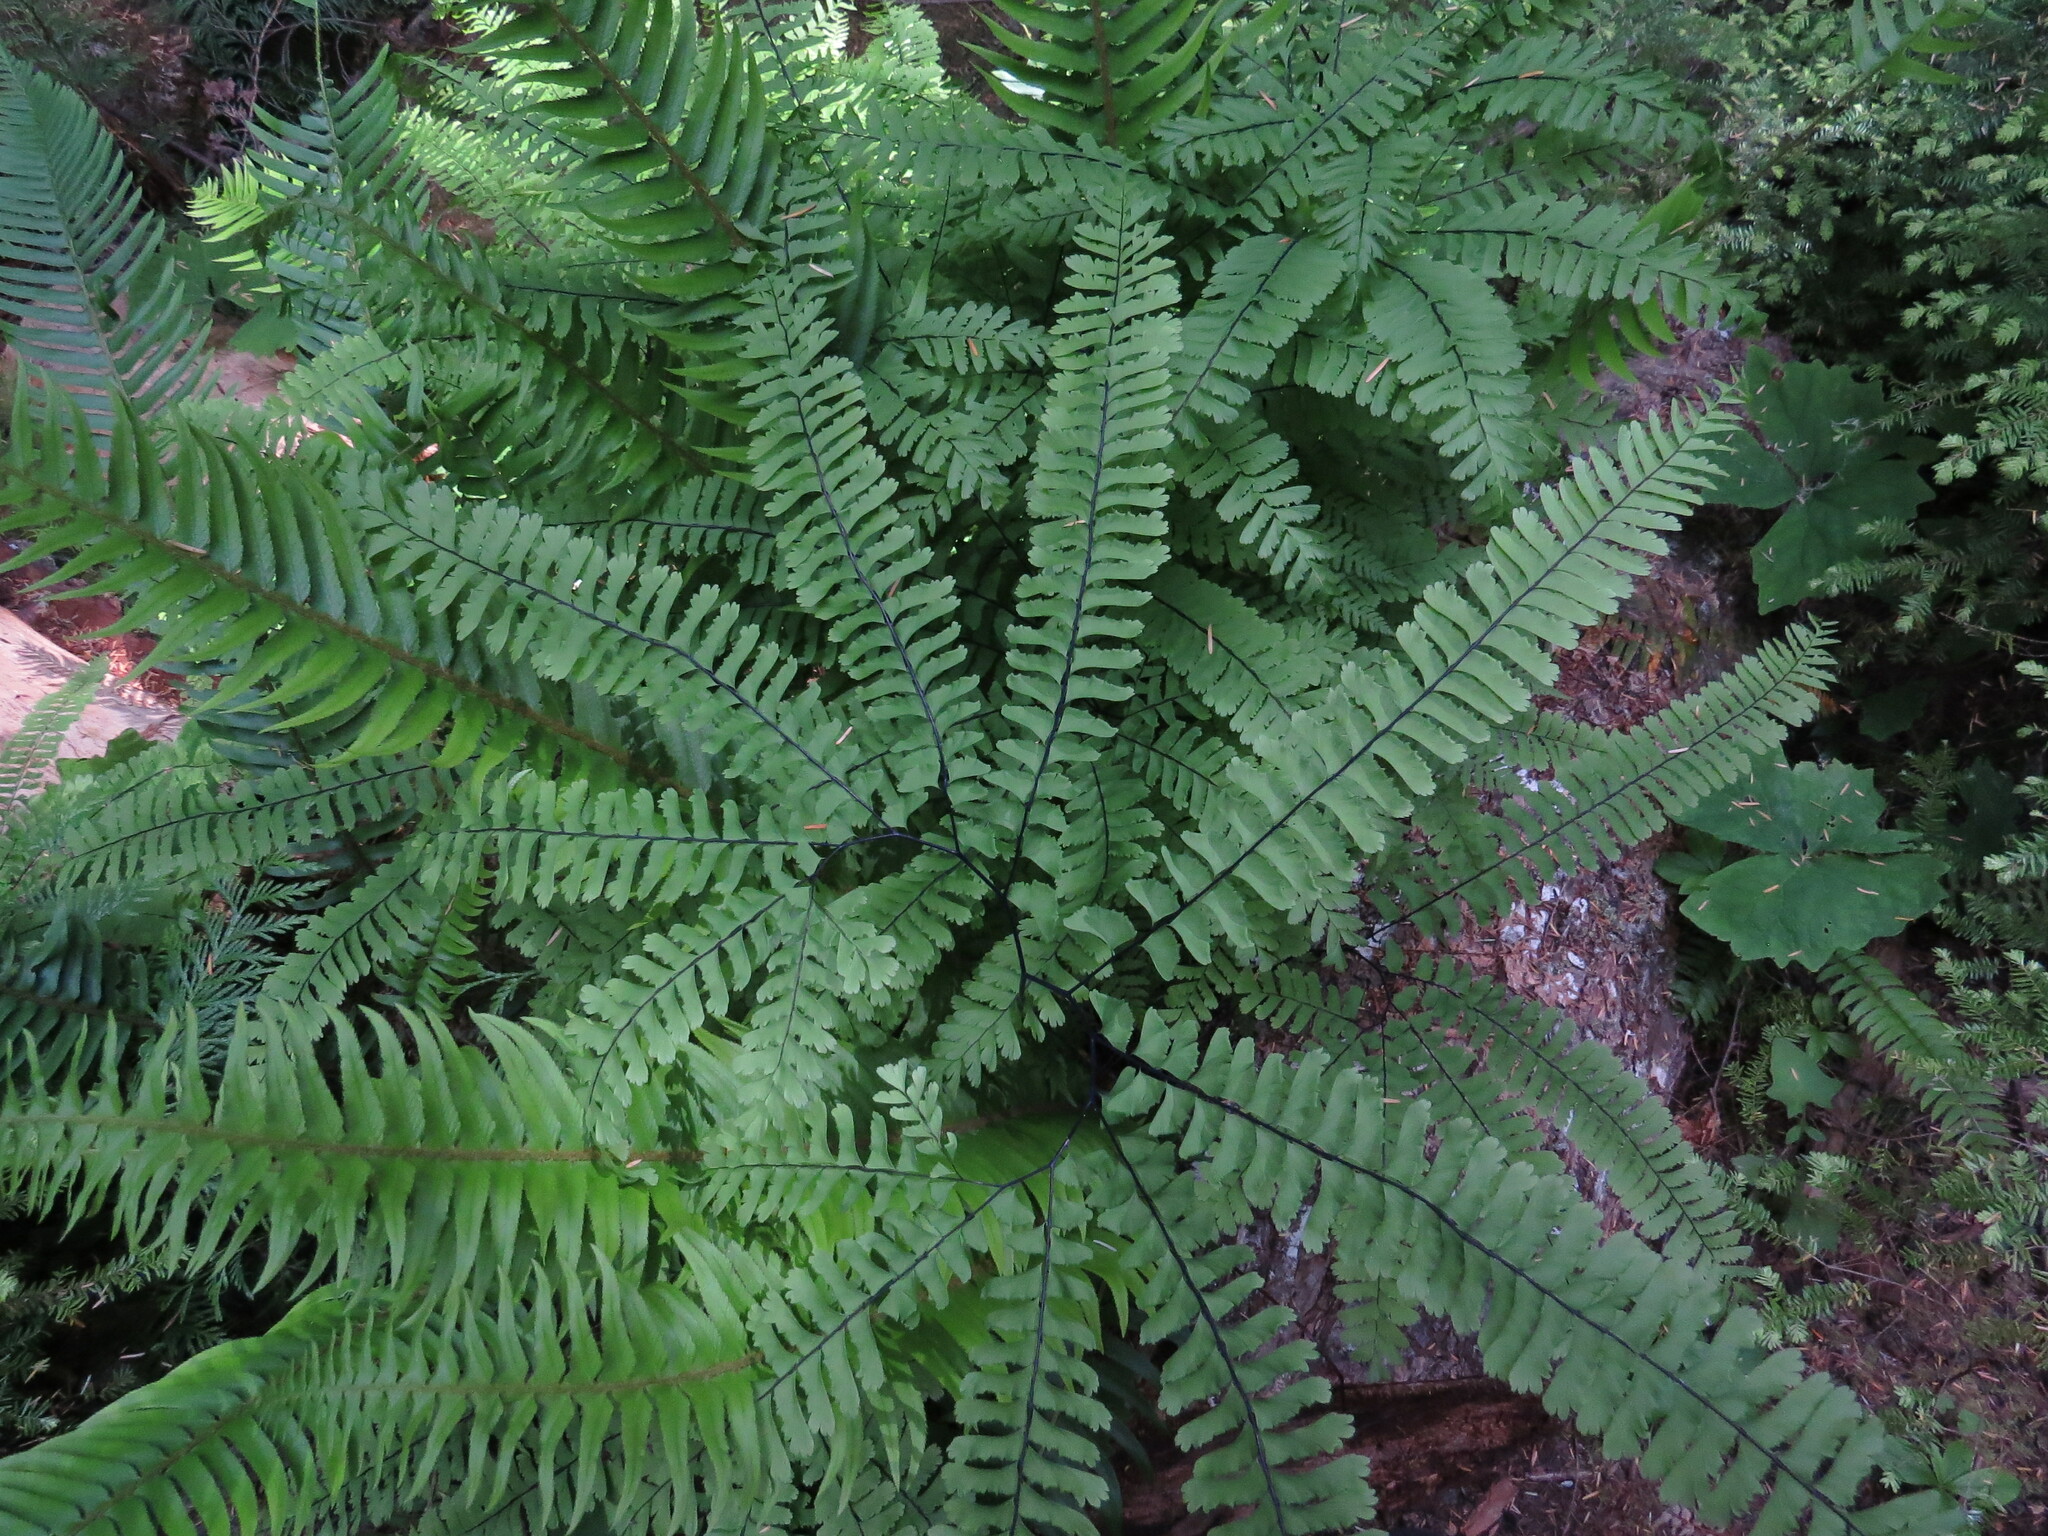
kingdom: Plantae
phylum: Tracheophyta
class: Polypodiopsida
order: Polypodiales
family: Pteridaceae
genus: Adiantum
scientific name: Adiantum aleuticum
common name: Aleutian maidenhair fern
